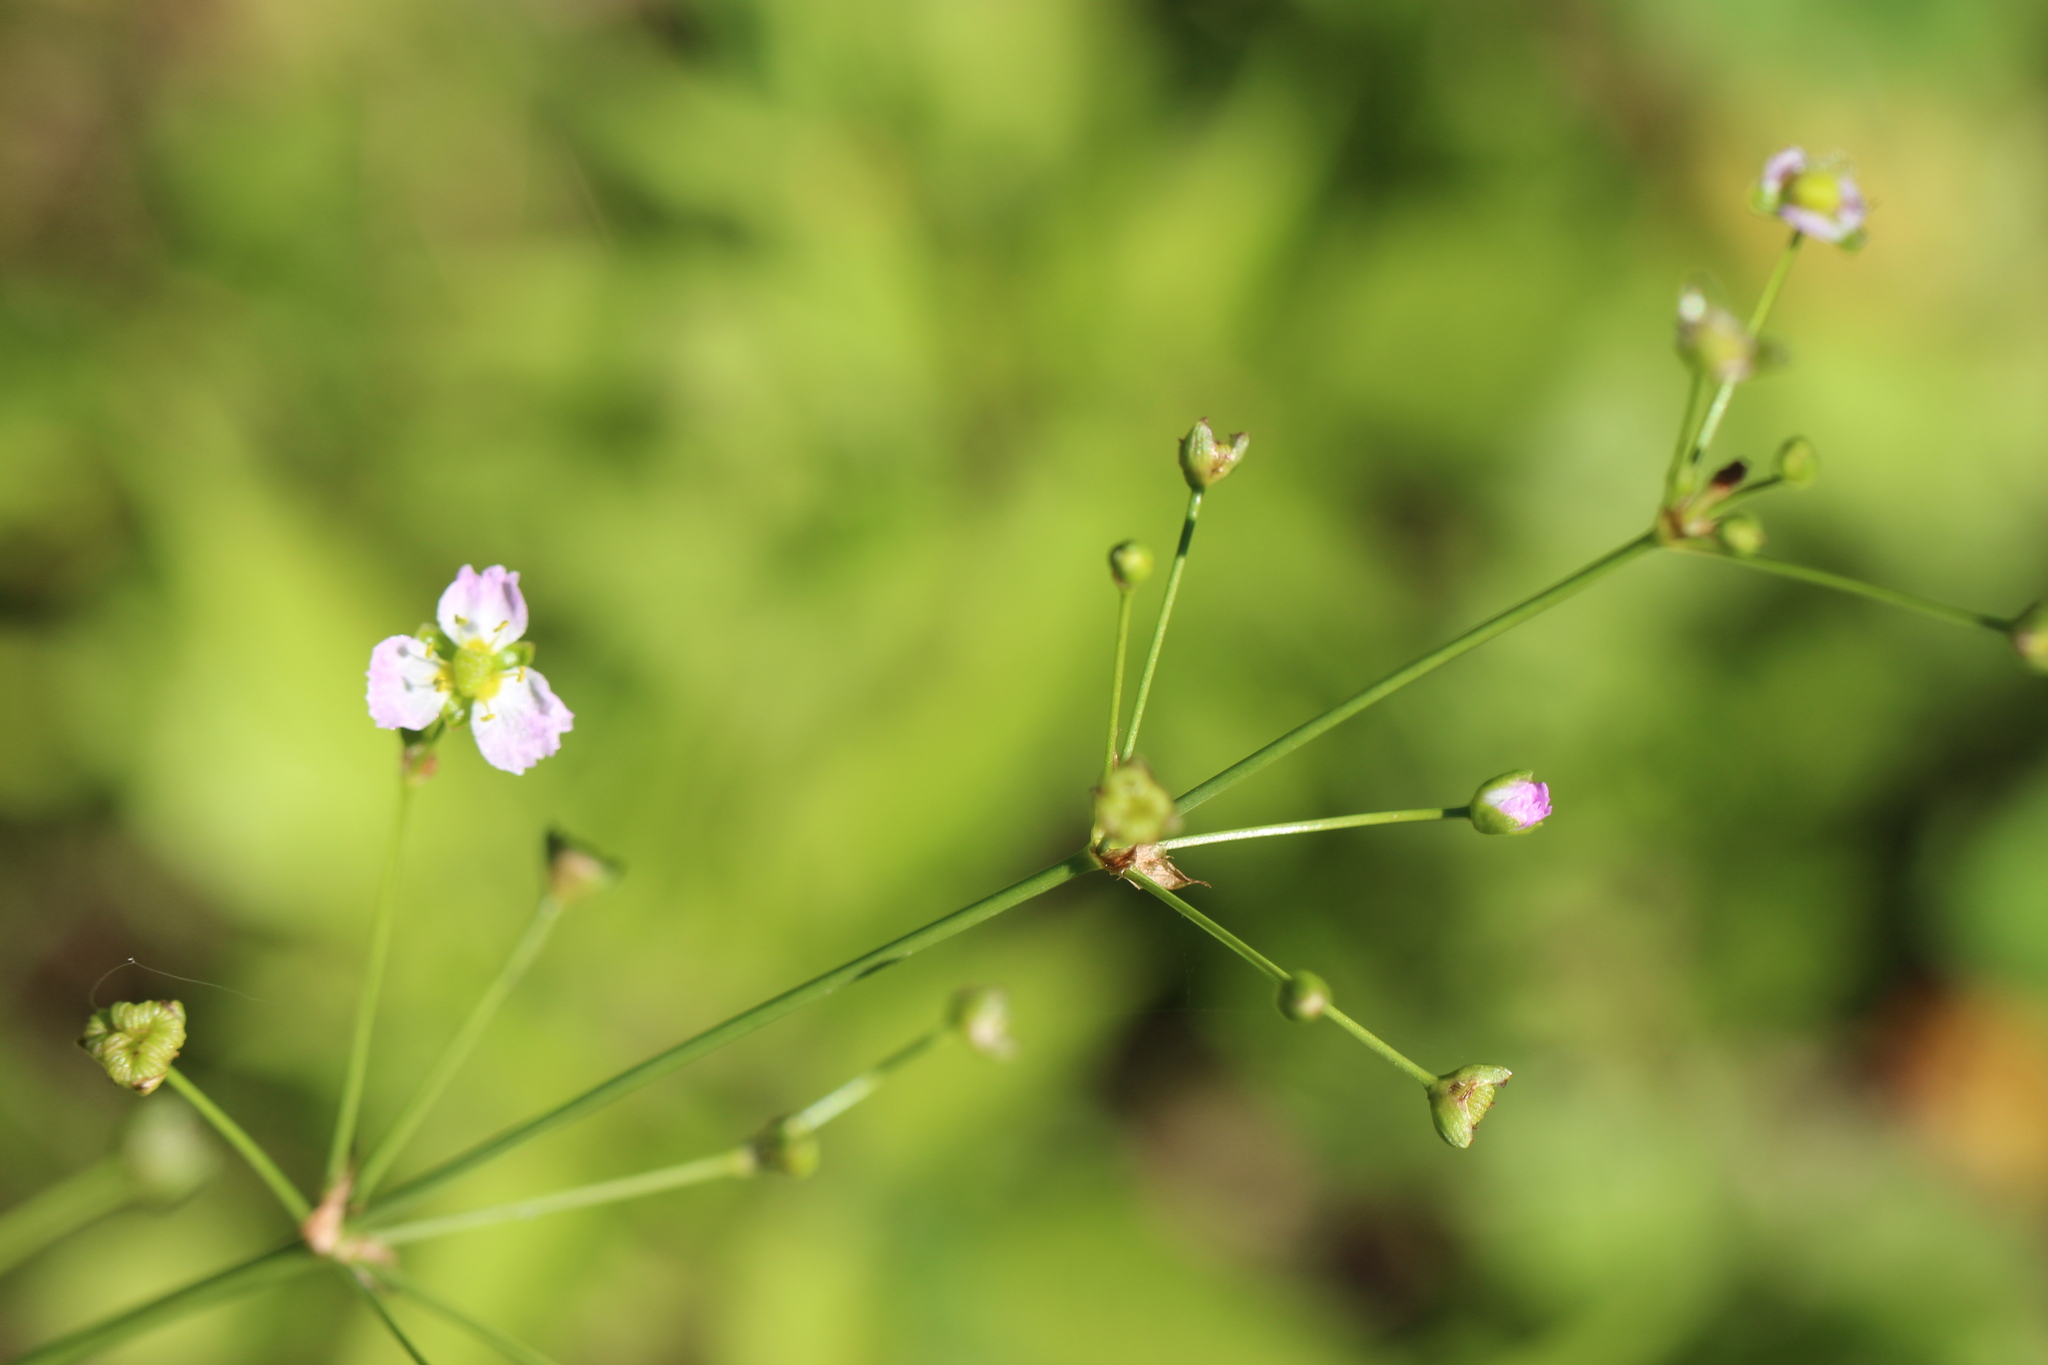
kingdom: Plantae
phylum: Tracheophyta
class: Liliopsida
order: Alismatales
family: Alismataceae
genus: Alisma
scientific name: Alisma plantago-aquatica
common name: Water-plantain
